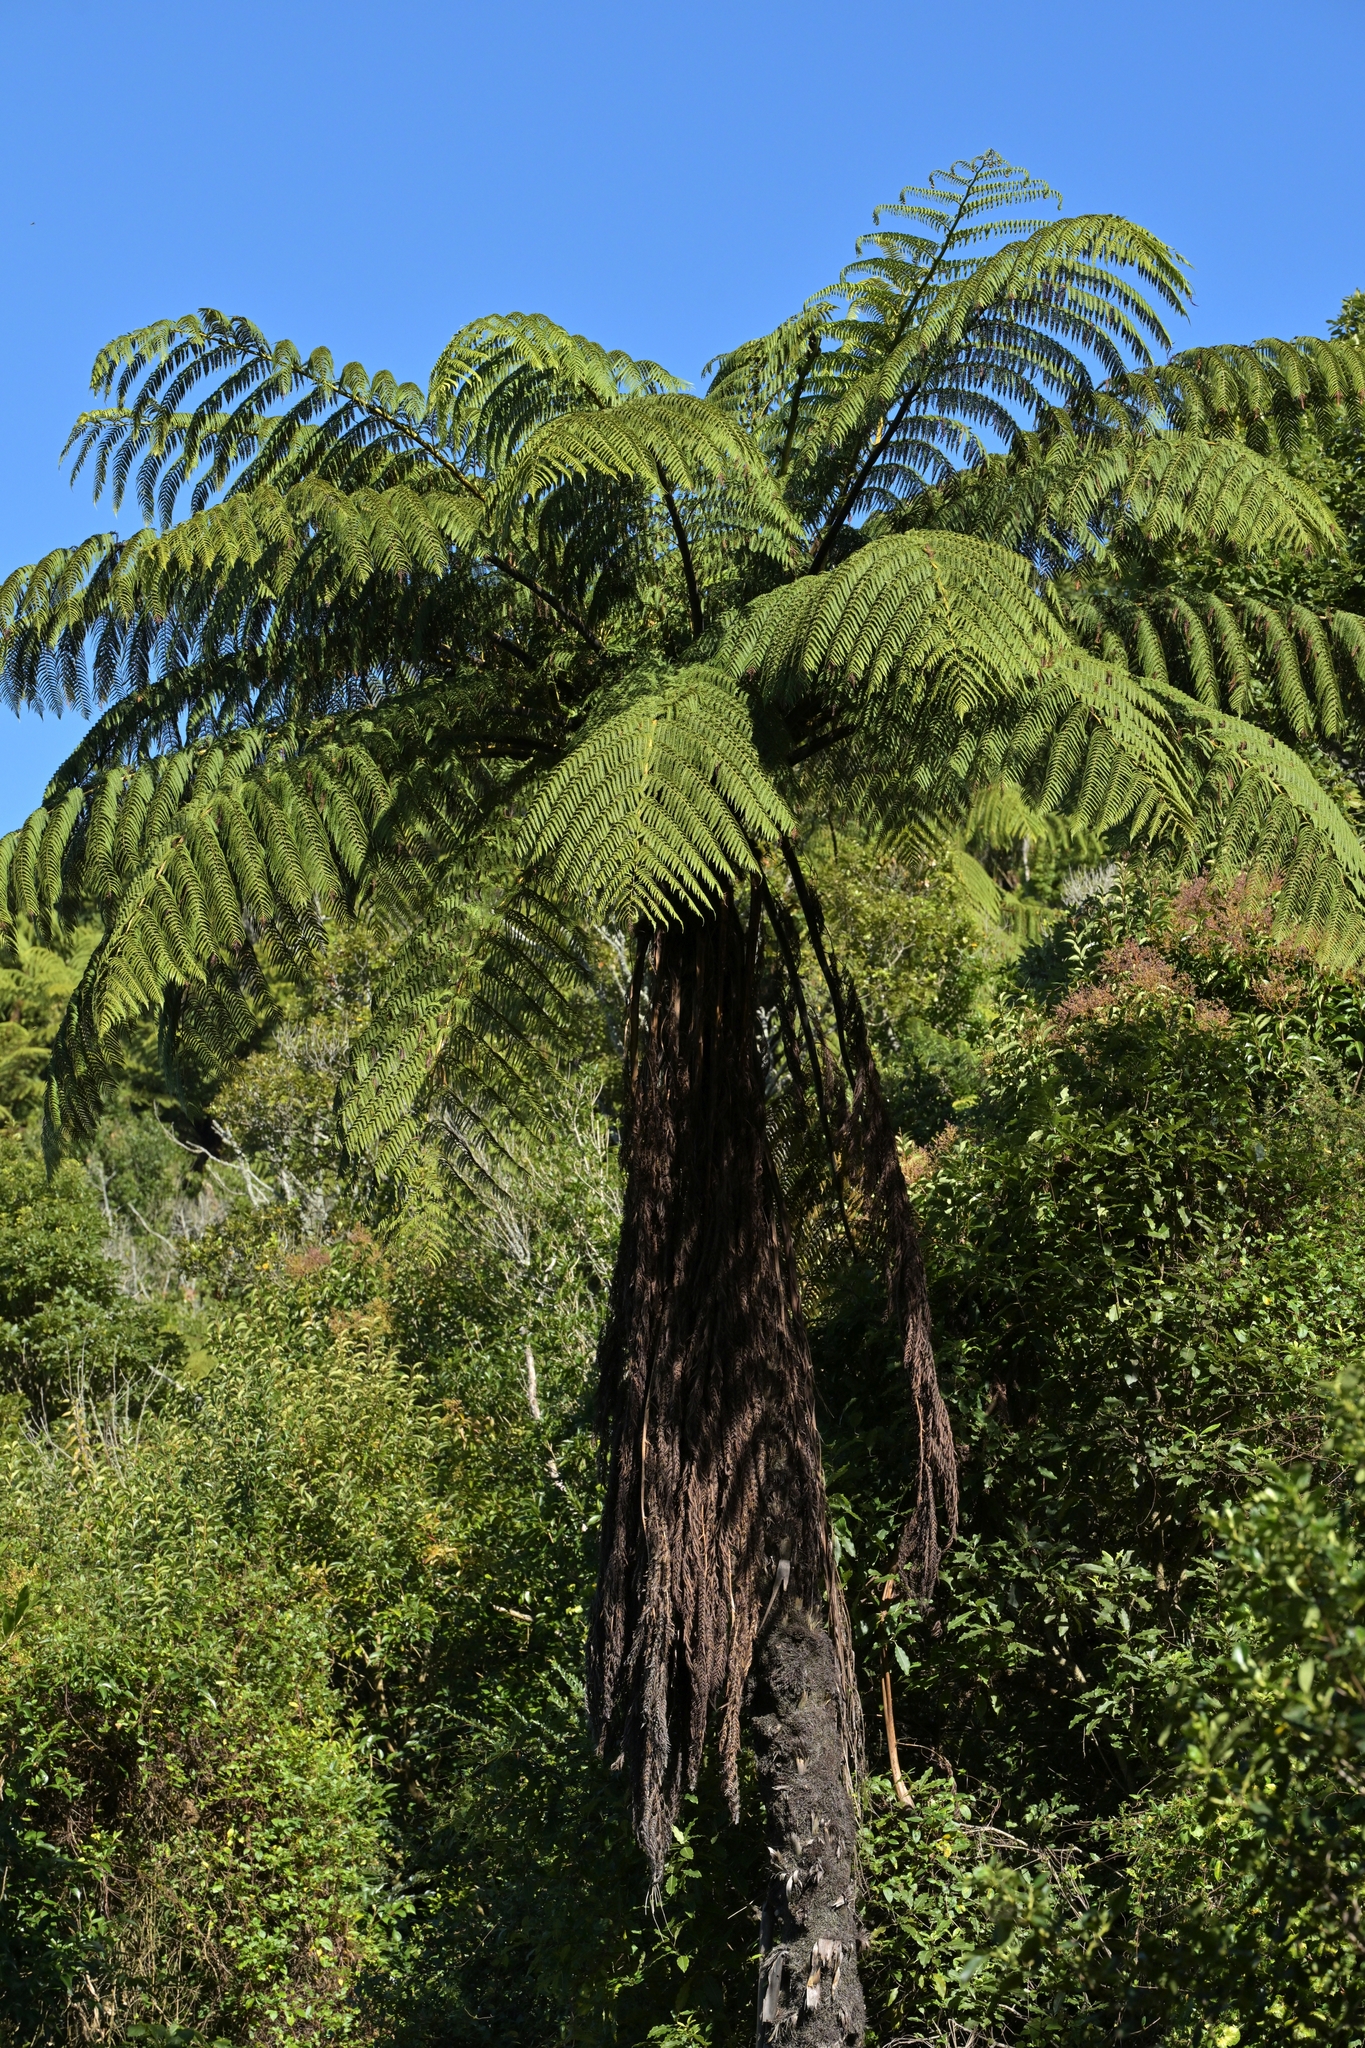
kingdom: Plantae
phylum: Tracheophyta
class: Polypodiopsida
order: Cyatheales
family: Cyatheaceae
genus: Sphaeropteris
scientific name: Sphaeropteris medullaris
